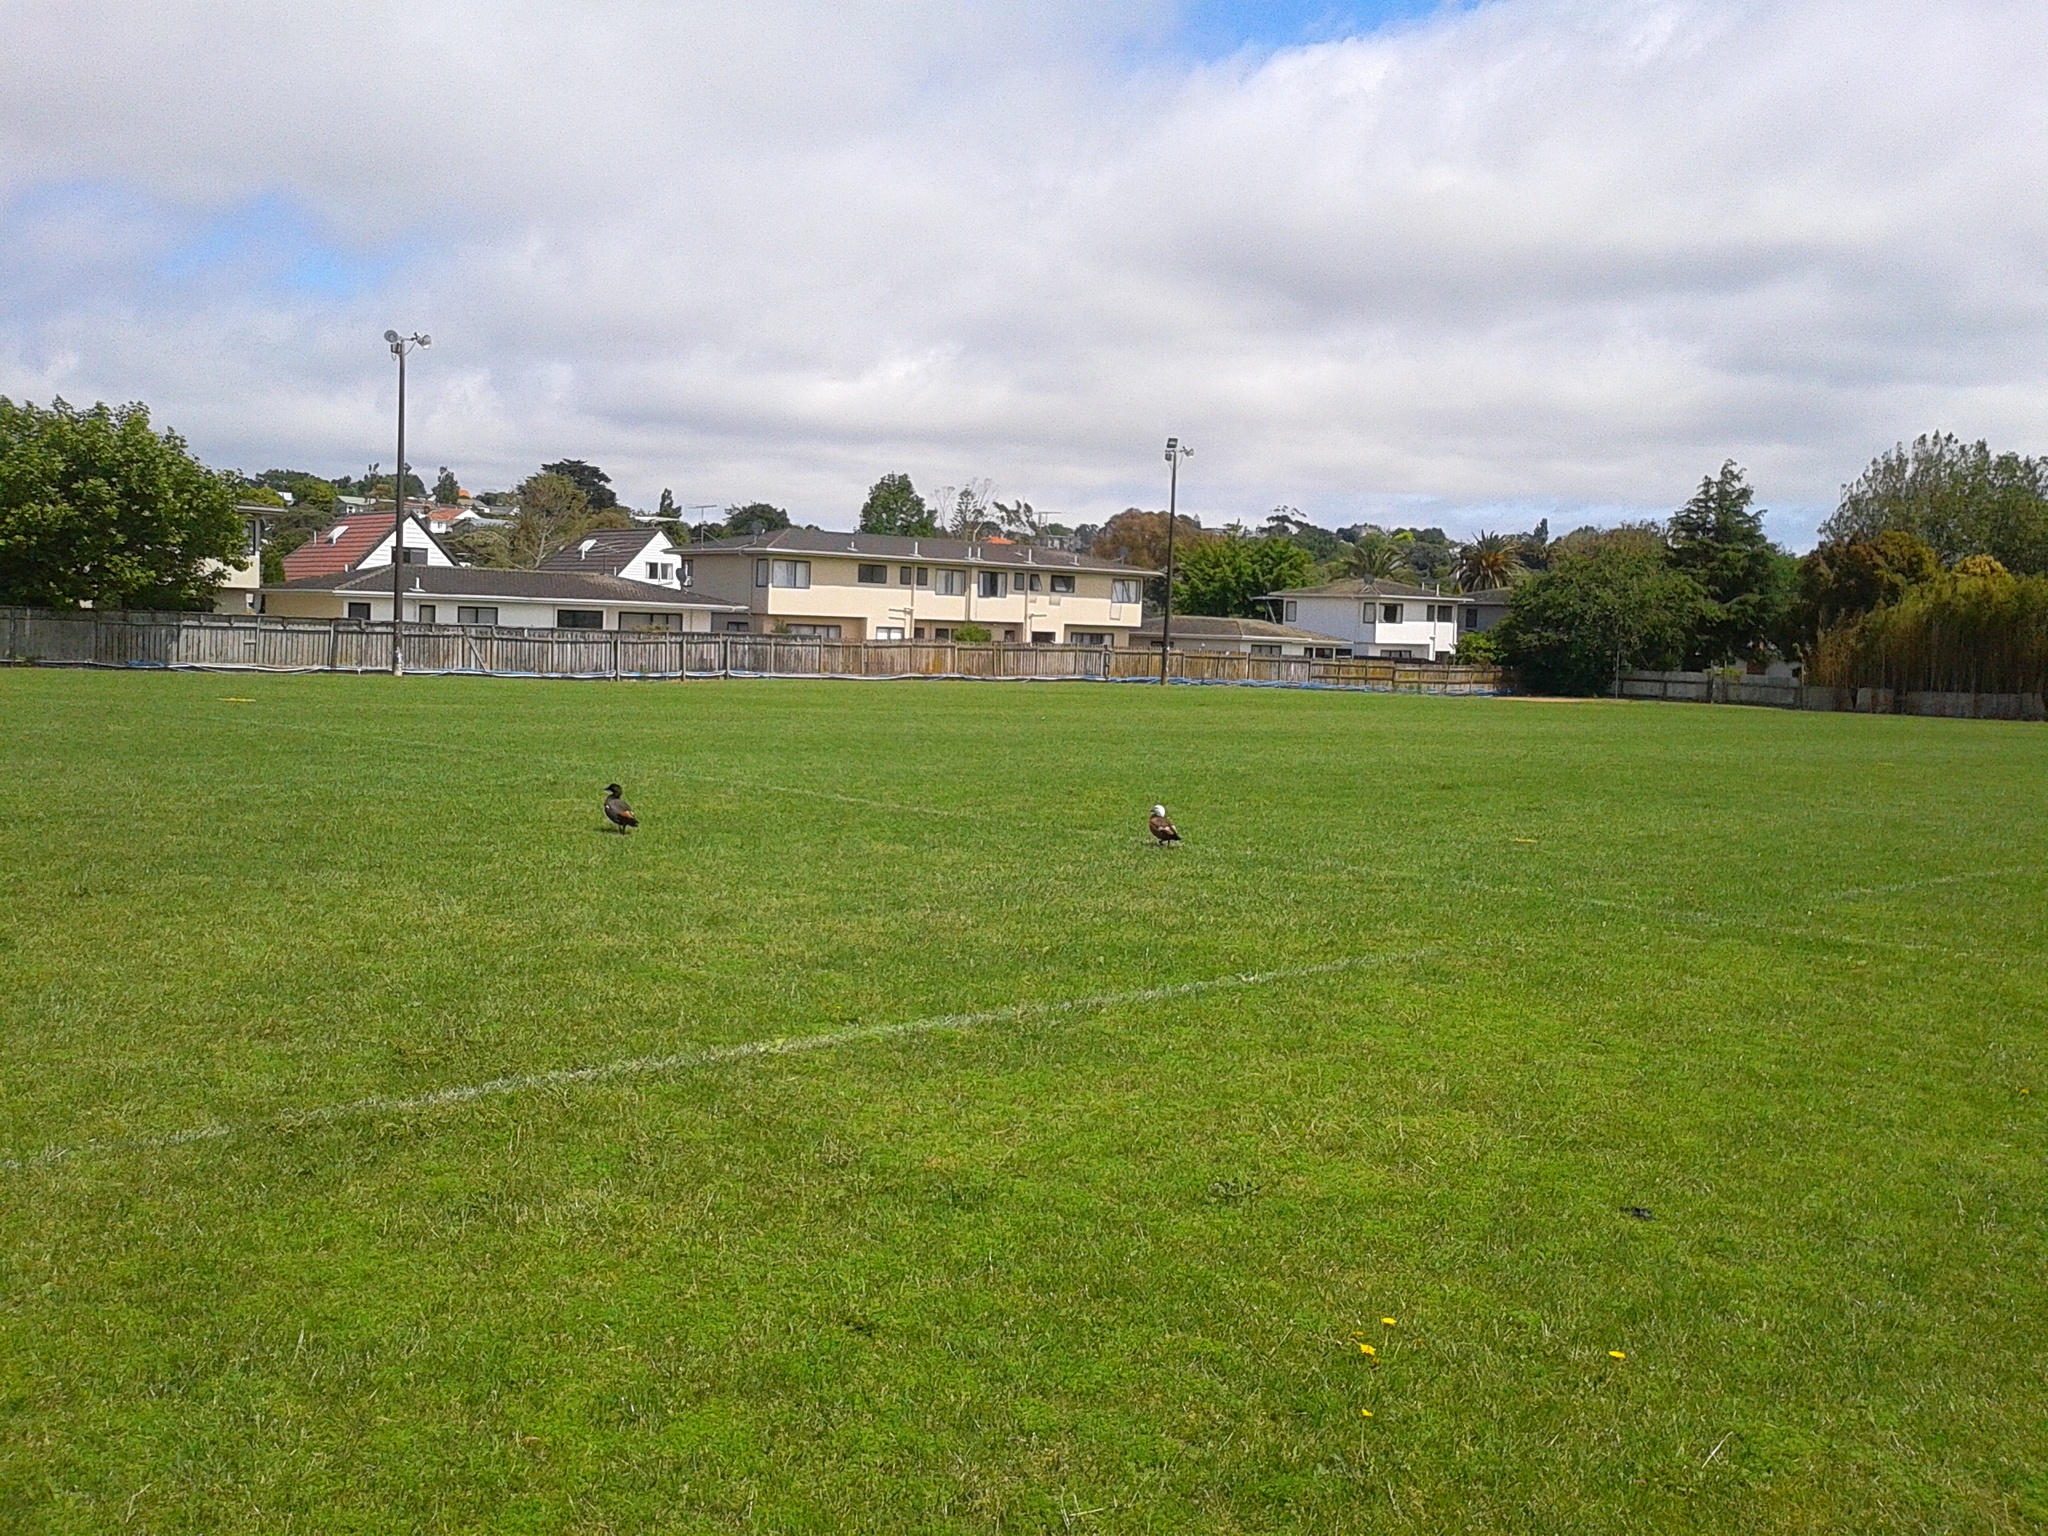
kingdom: Animalia
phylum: Chordata
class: Aves
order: Anseriformes
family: Anatidae
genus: Tadorna
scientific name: Tadorna variegata
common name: Paradise shelduck
